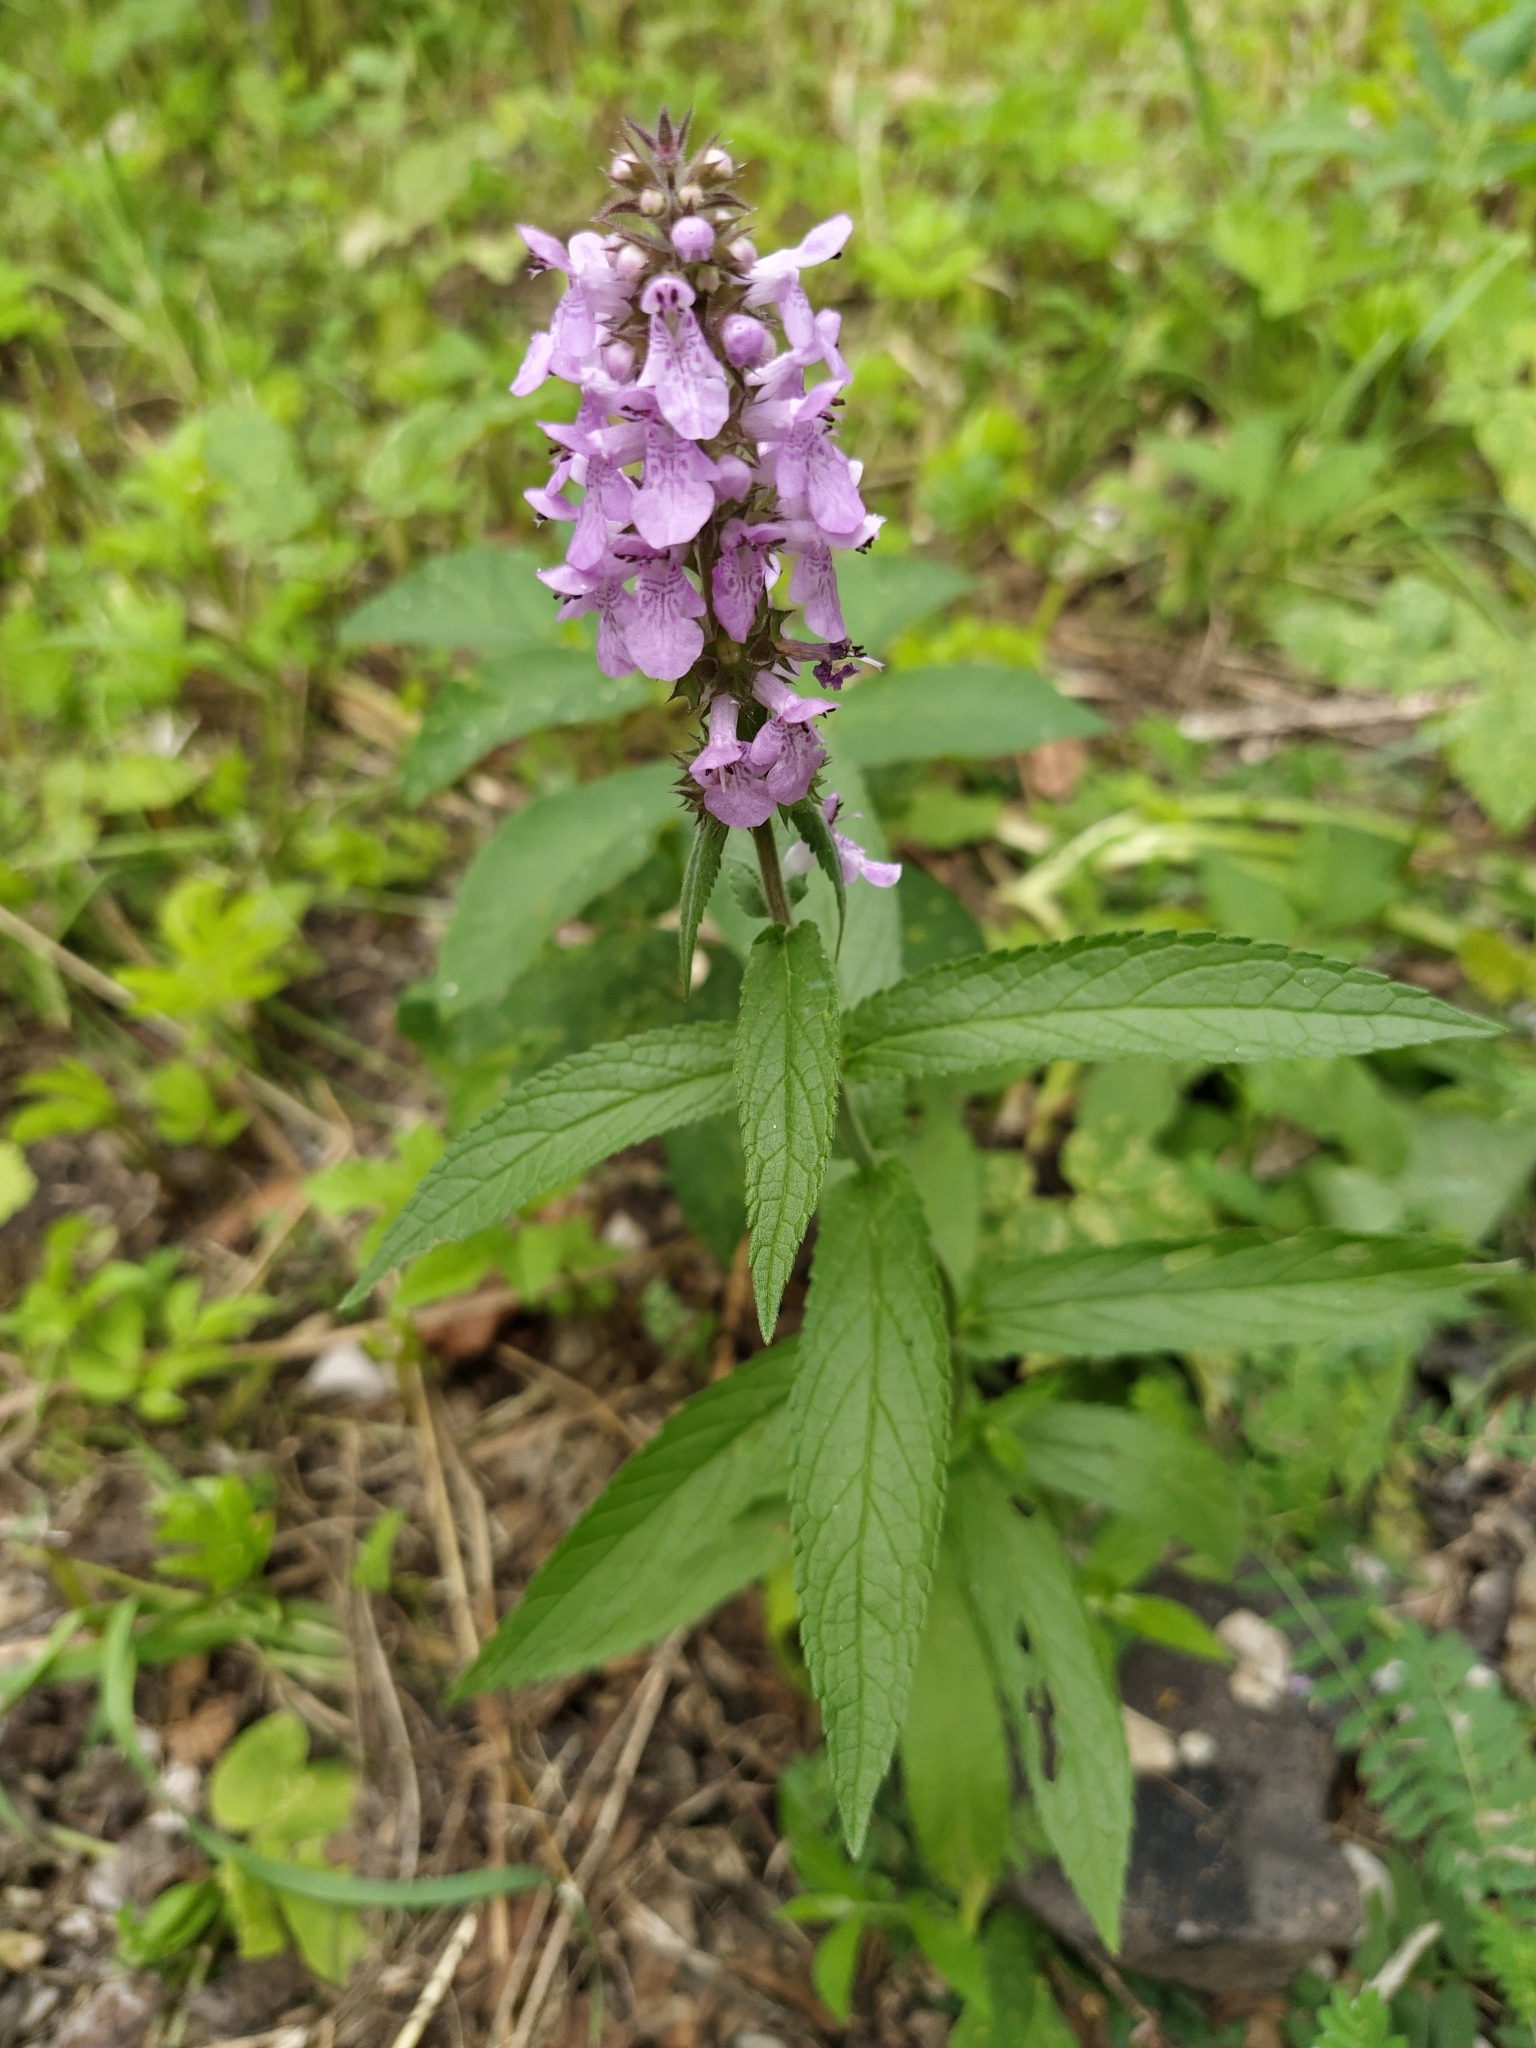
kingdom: Plantae
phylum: Tracheophyta
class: Magnoliopsida
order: Lamiales
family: Lamiaceae
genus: Stachys
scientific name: Stachys palustris
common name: Marsh woundwort
